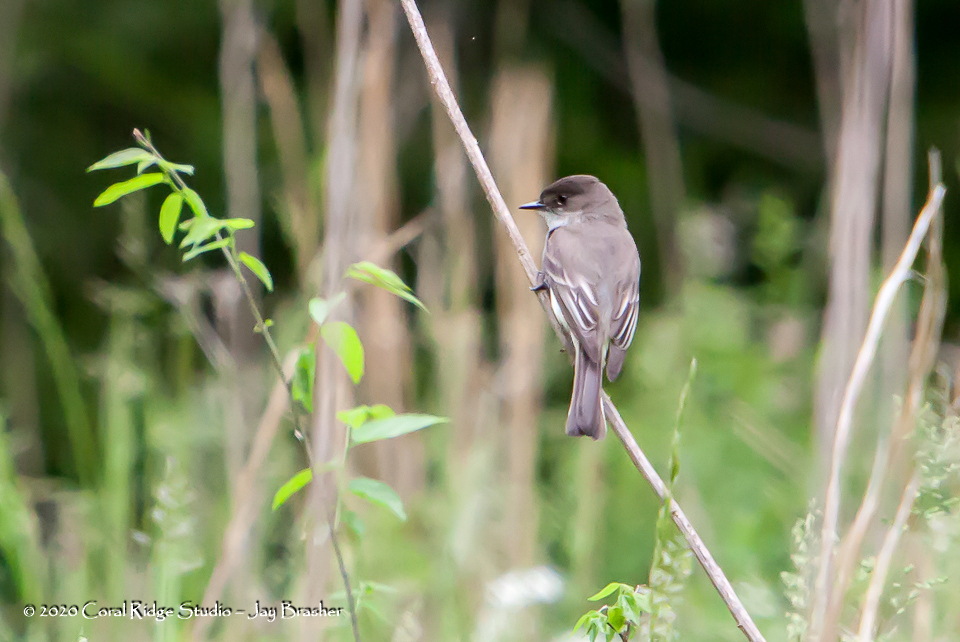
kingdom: Animalia
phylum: Chordata
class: Aves
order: Passeriformes
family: Tyrannidae
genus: Sayornis
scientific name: Sayornis phoebe
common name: Eastern phoebe
